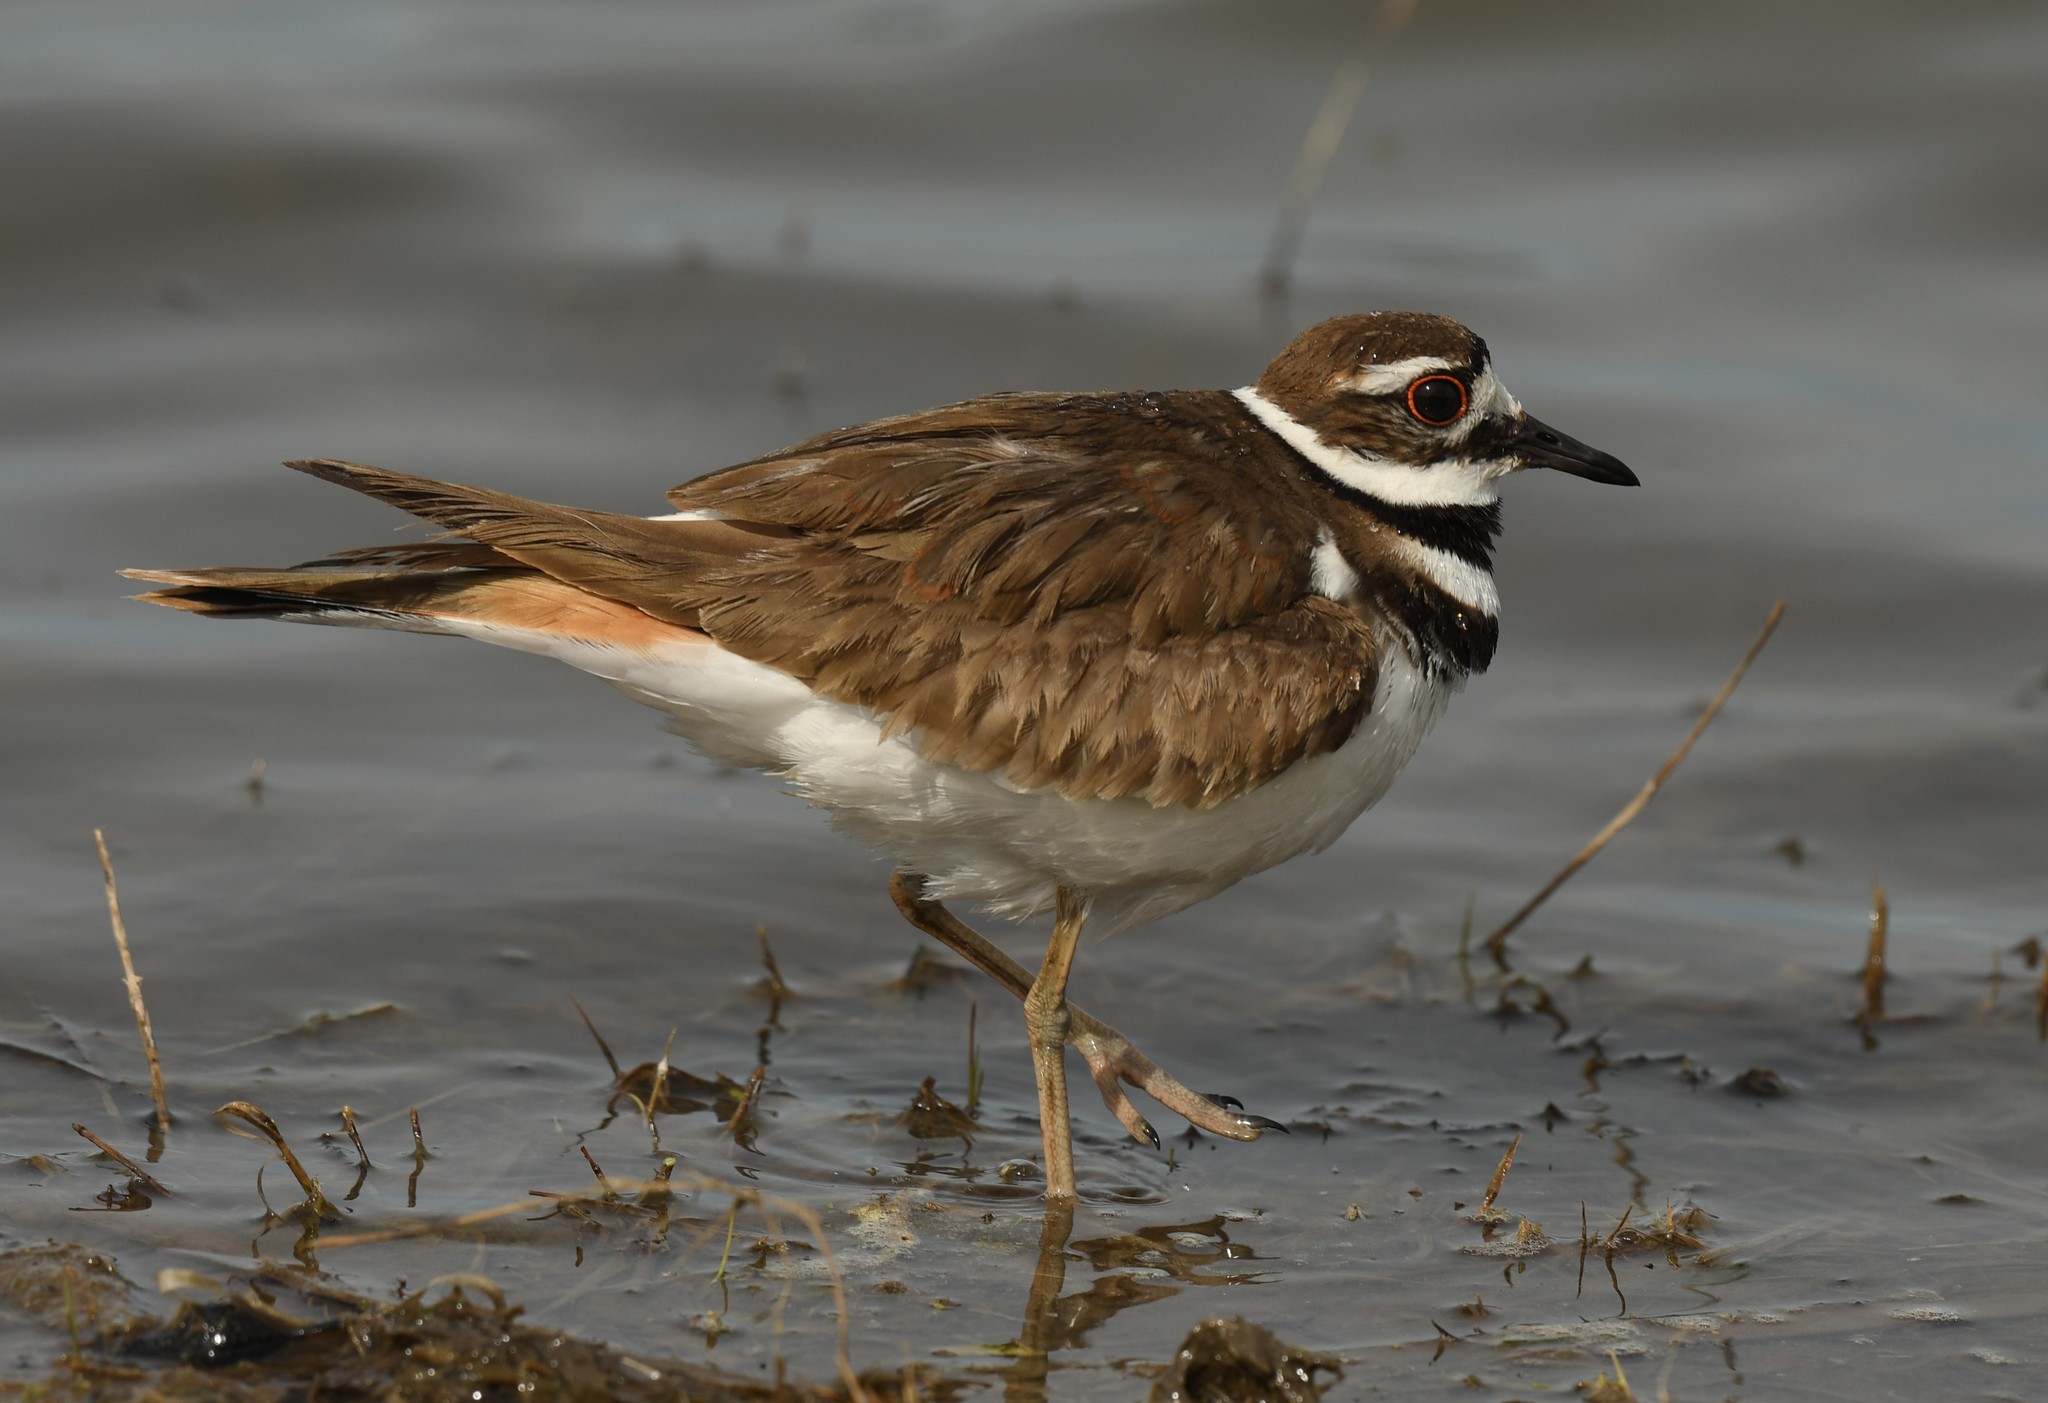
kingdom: Animalia
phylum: Chordata
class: Aves
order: Charadriiformes
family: Charadriidae
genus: Charadrius
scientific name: Charadrius vociferus
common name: Killdeer
